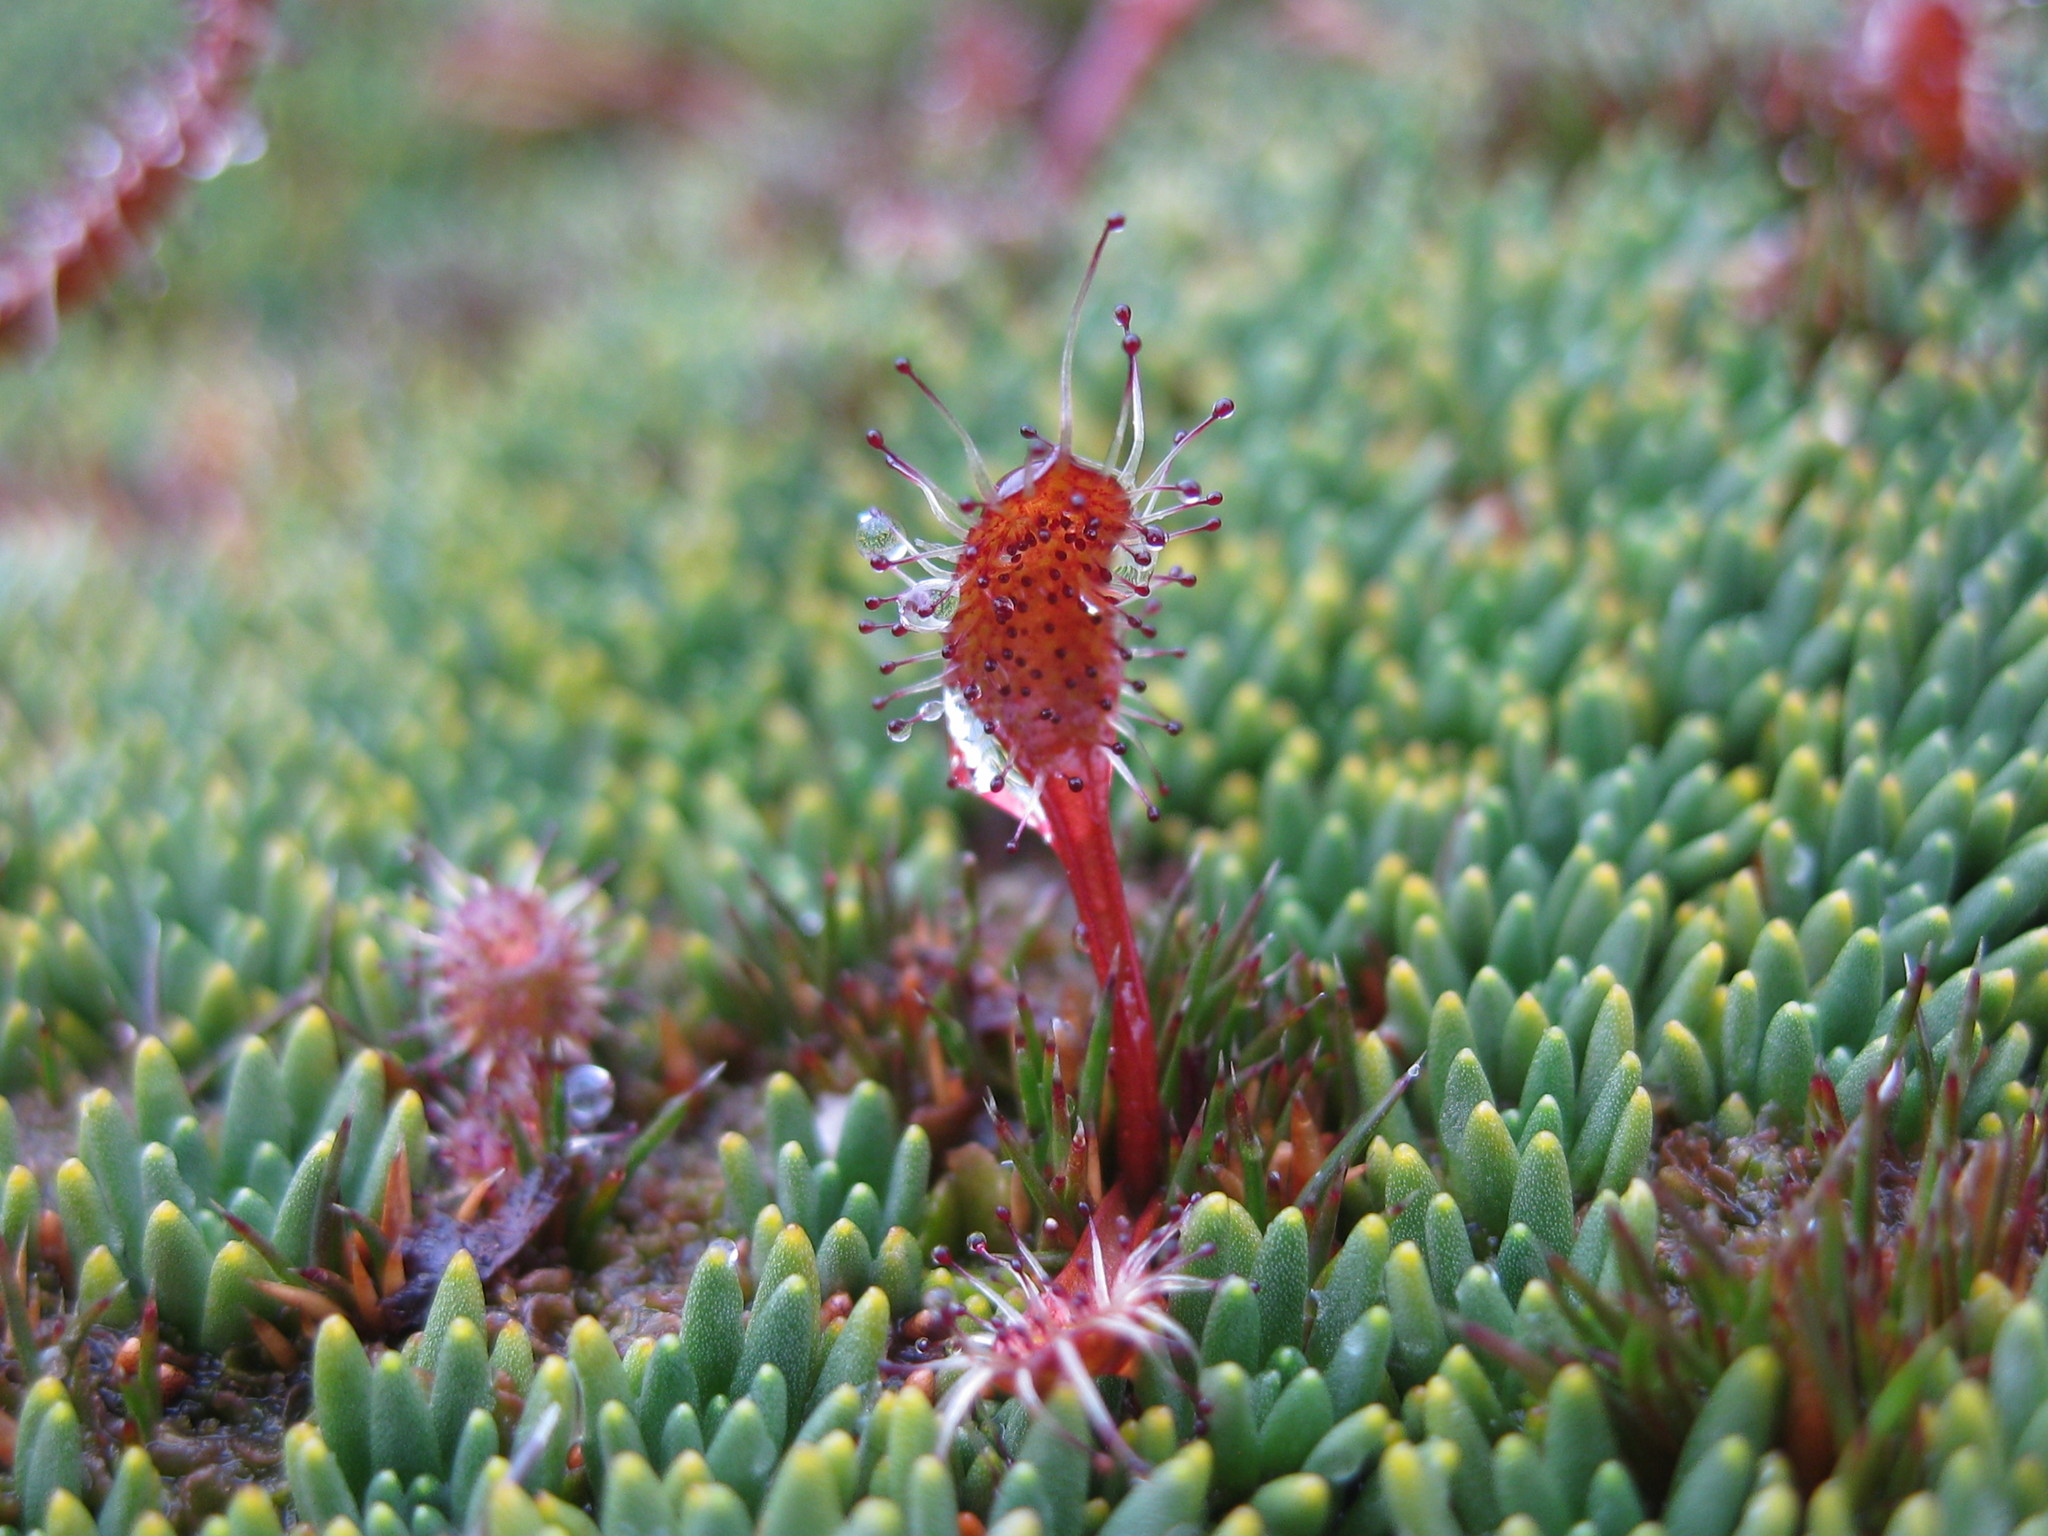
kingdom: Plantae
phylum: Tracheophyta
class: Magnoliopsida
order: Caryophyllales
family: Droseraceae
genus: Drosera
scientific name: Drosera arcturi
